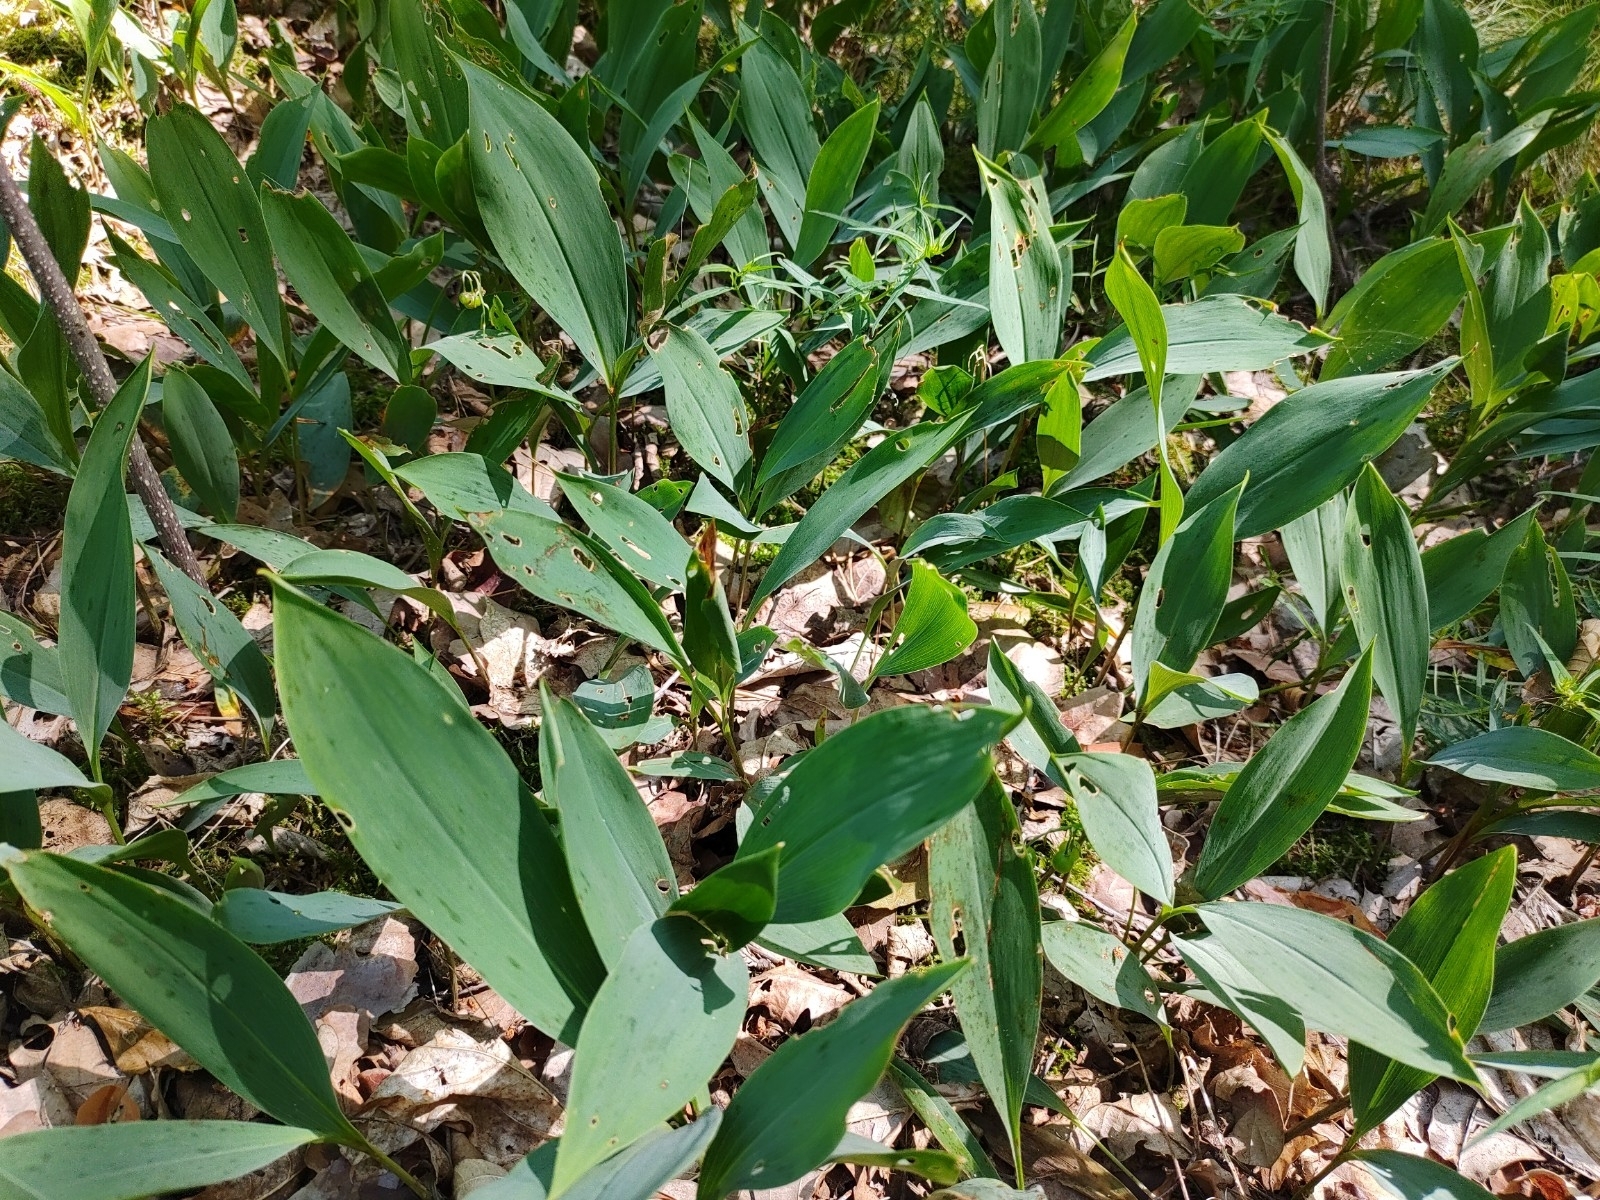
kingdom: Plantae
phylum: Tracheophyta
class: Liliopsida
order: Asparagales
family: Asparagaceae
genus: Convallaria
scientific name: Convallaria majalis
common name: Lily-of-the-valley
